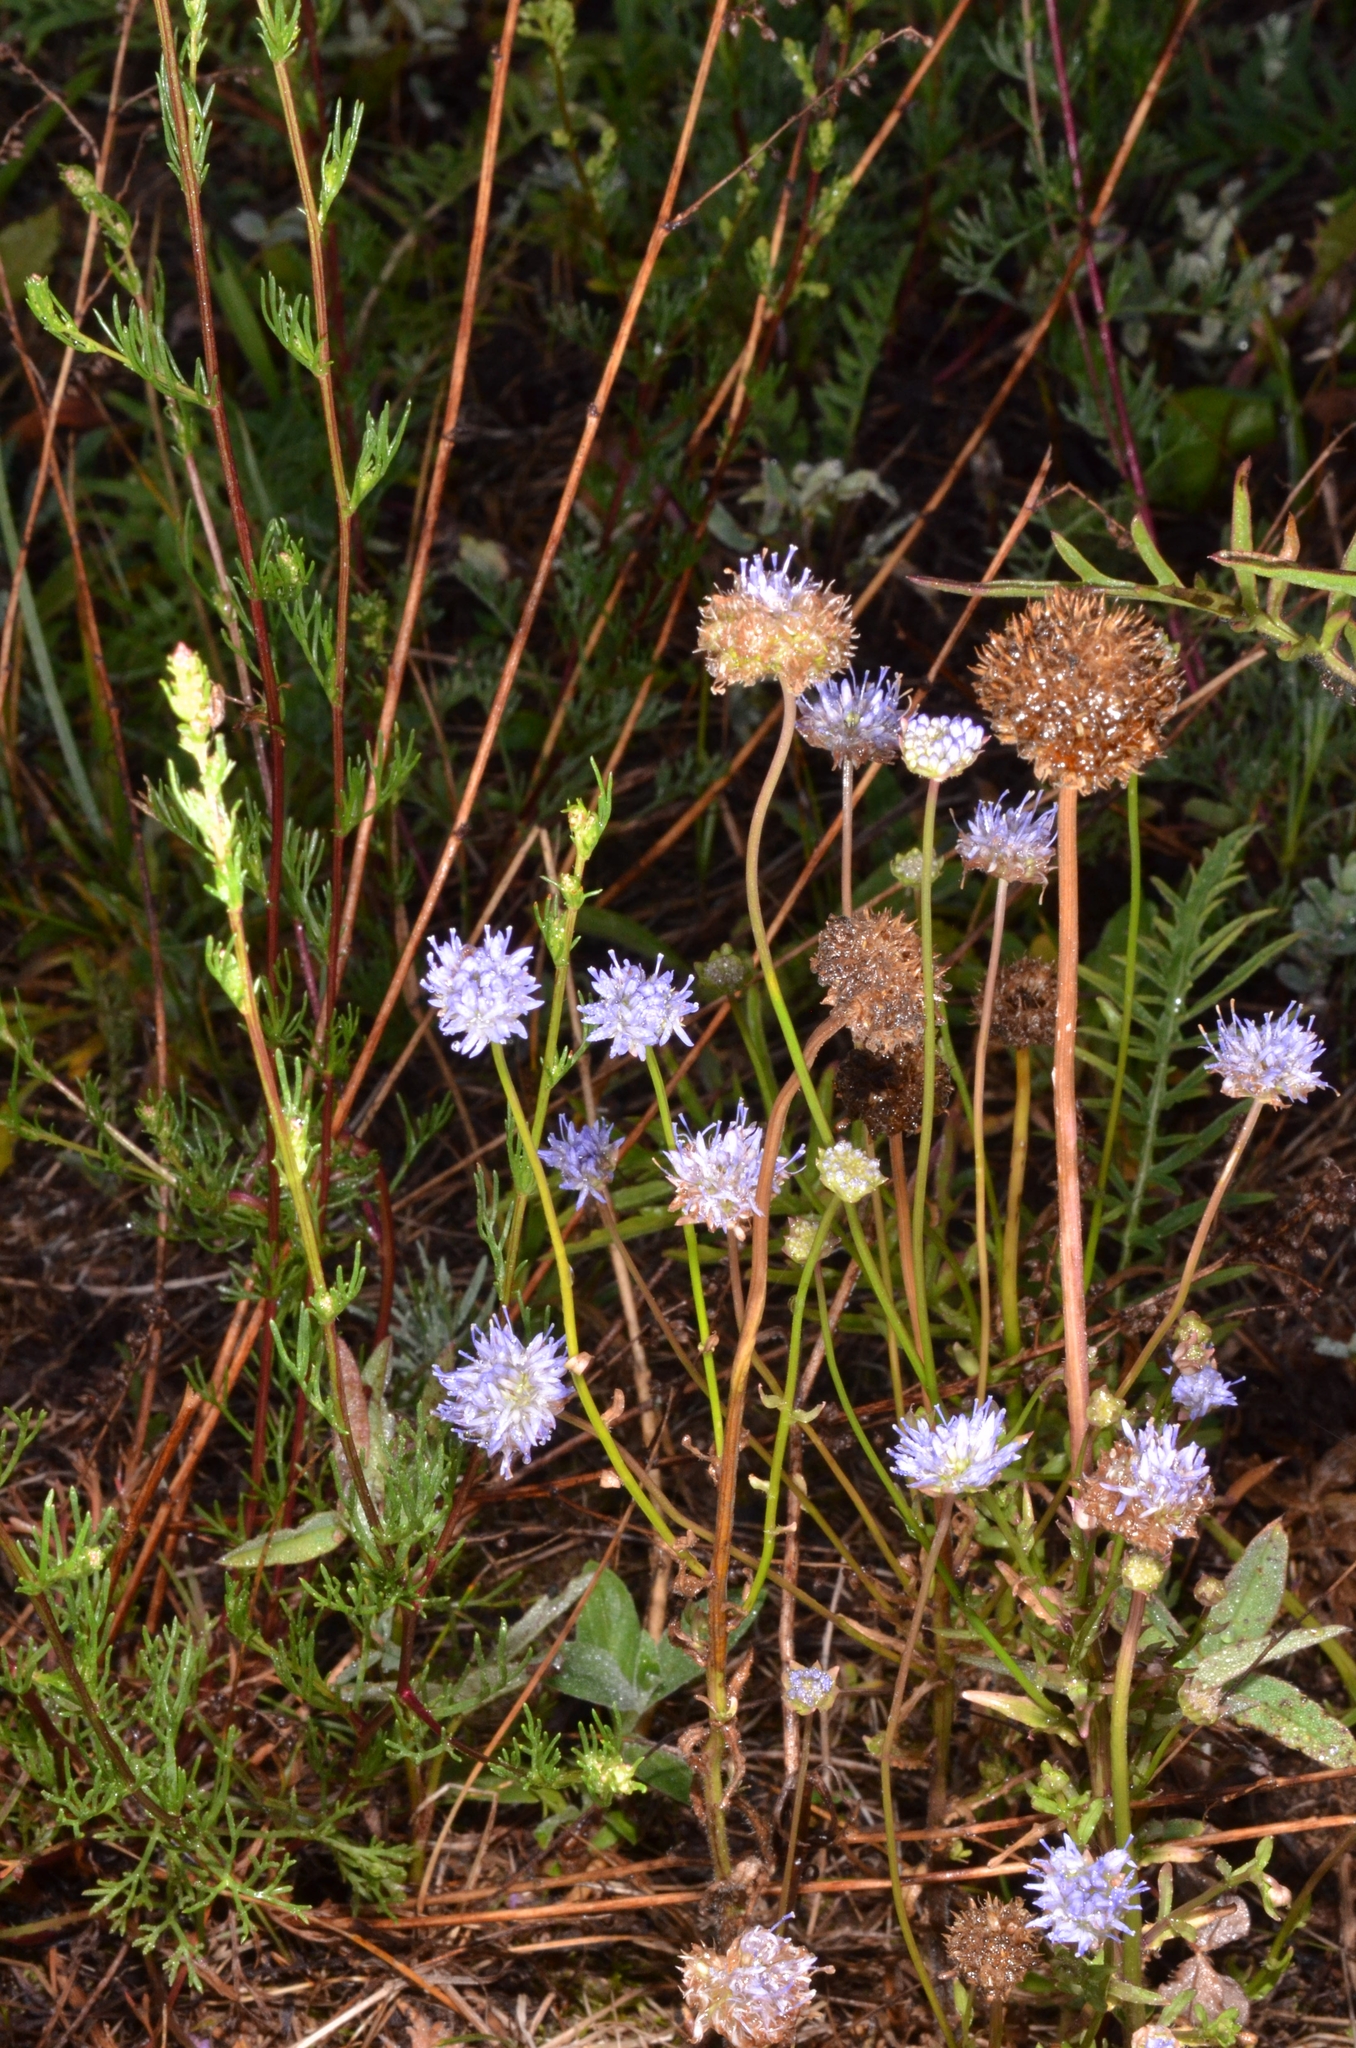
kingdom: Plantae
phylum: Tracheophyta
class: Magnoliopsida
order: Asterales
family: Campanulaceae
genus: Jasione
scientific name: Jasione montana
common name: Sheep's-bit
